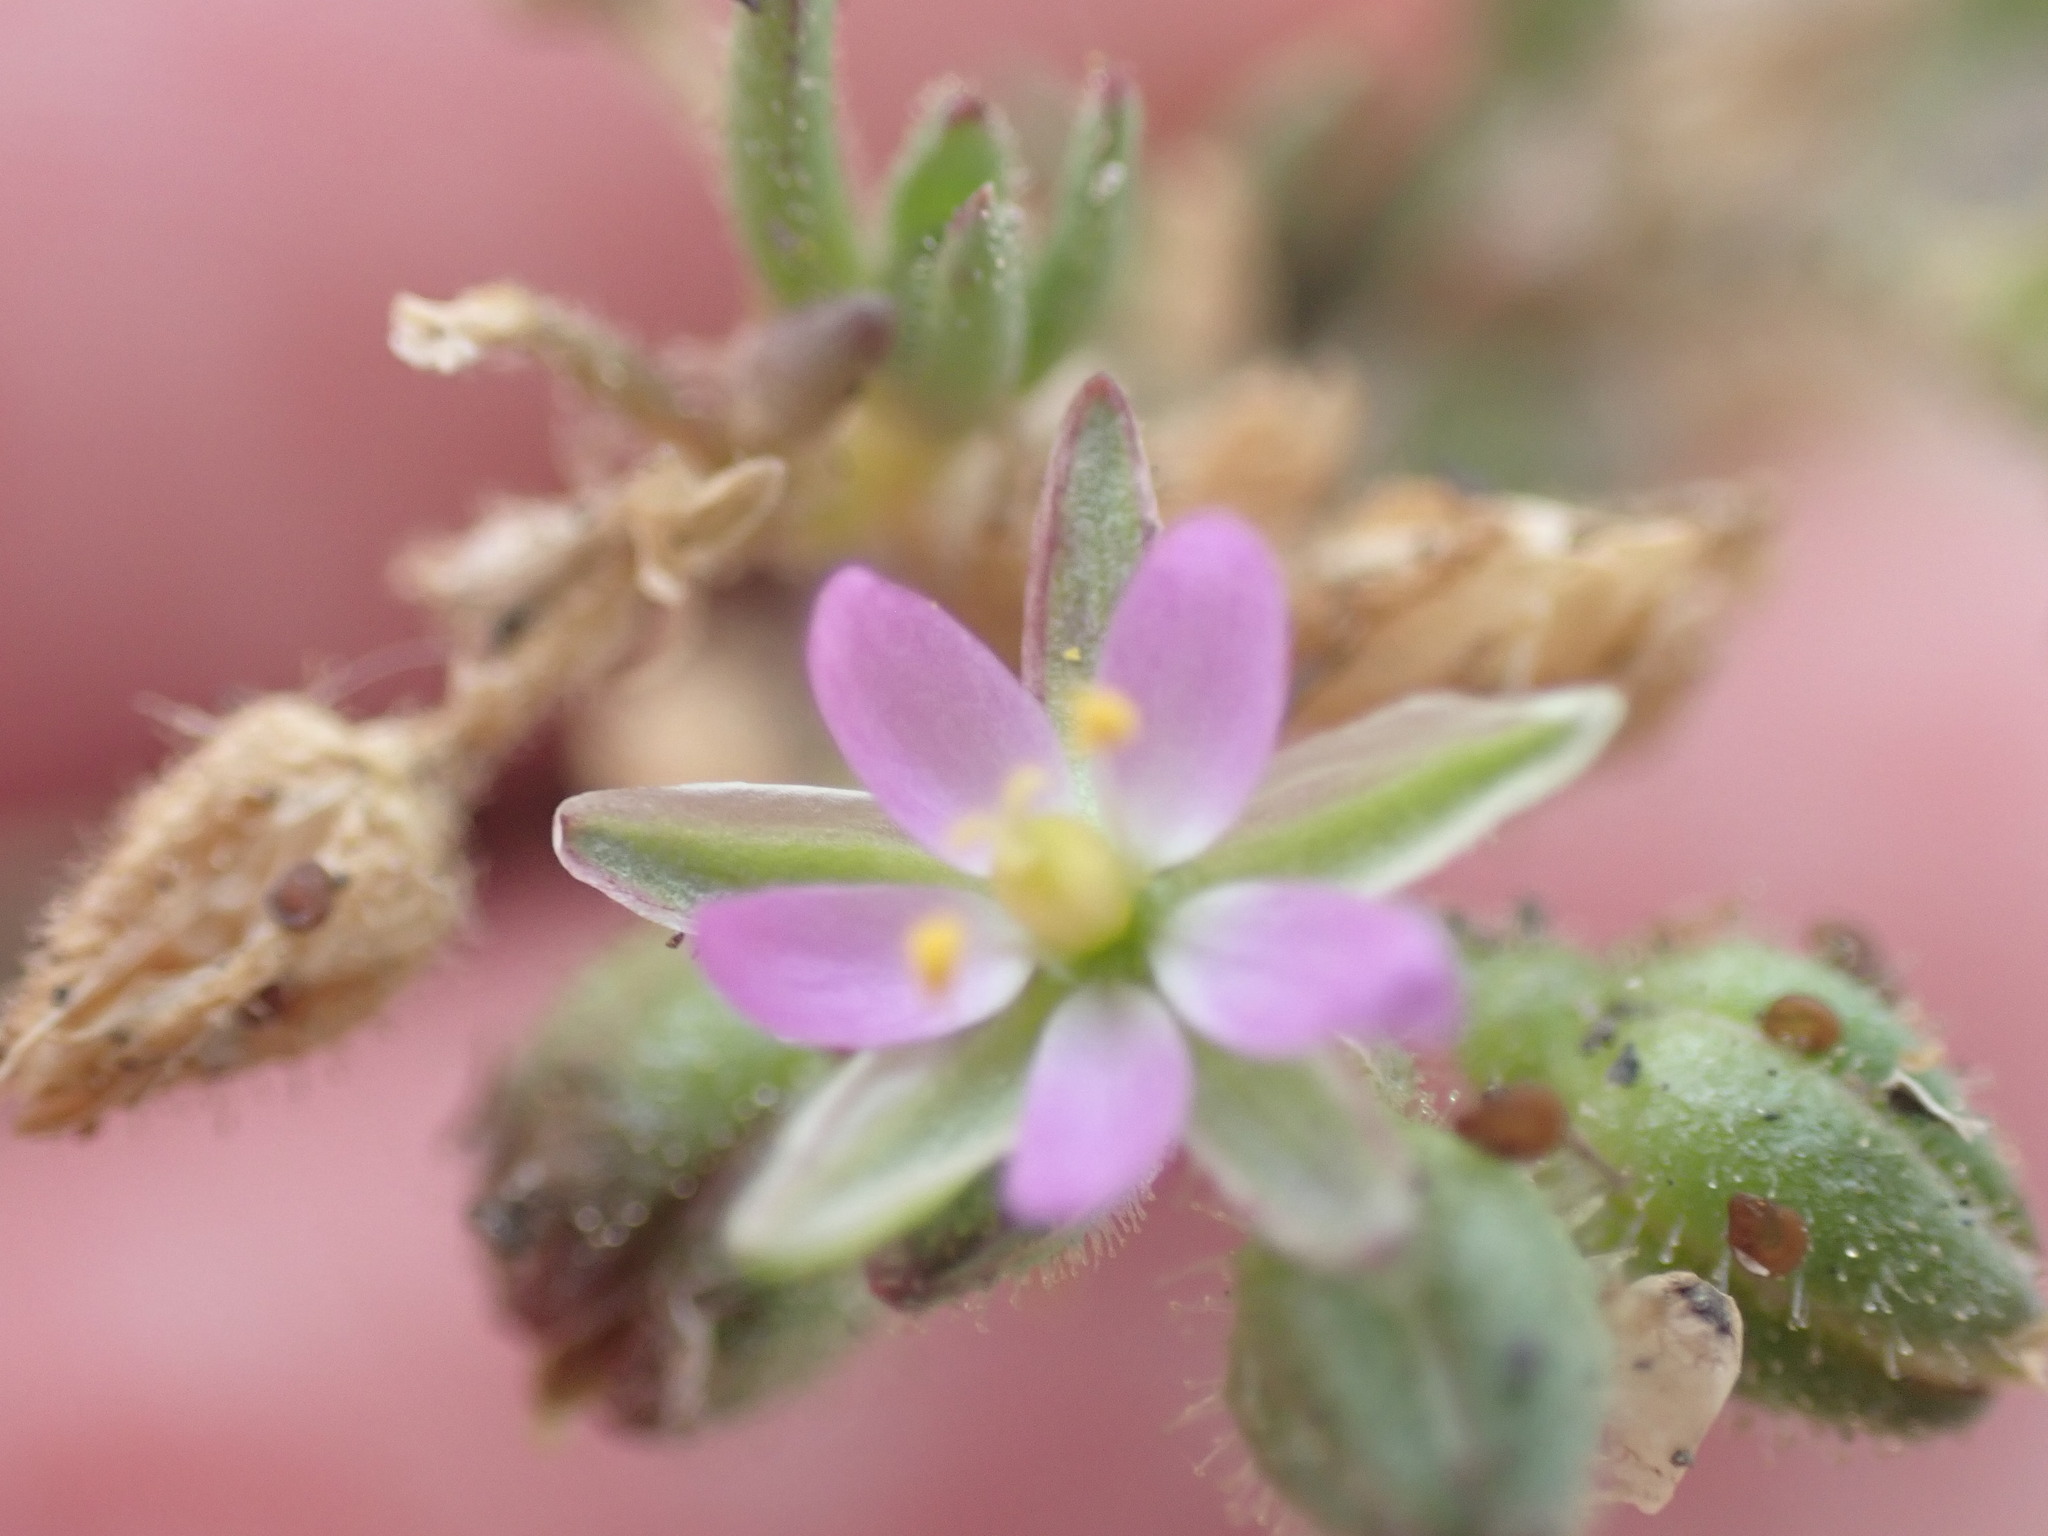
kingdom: Plantae
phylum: Tracheophyta
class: Magnoliopsida
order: Caryophyllales
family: Caryophyllaceae
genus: Spergularia
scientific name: Spergularia marina
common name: Lesser sea-spurrey
